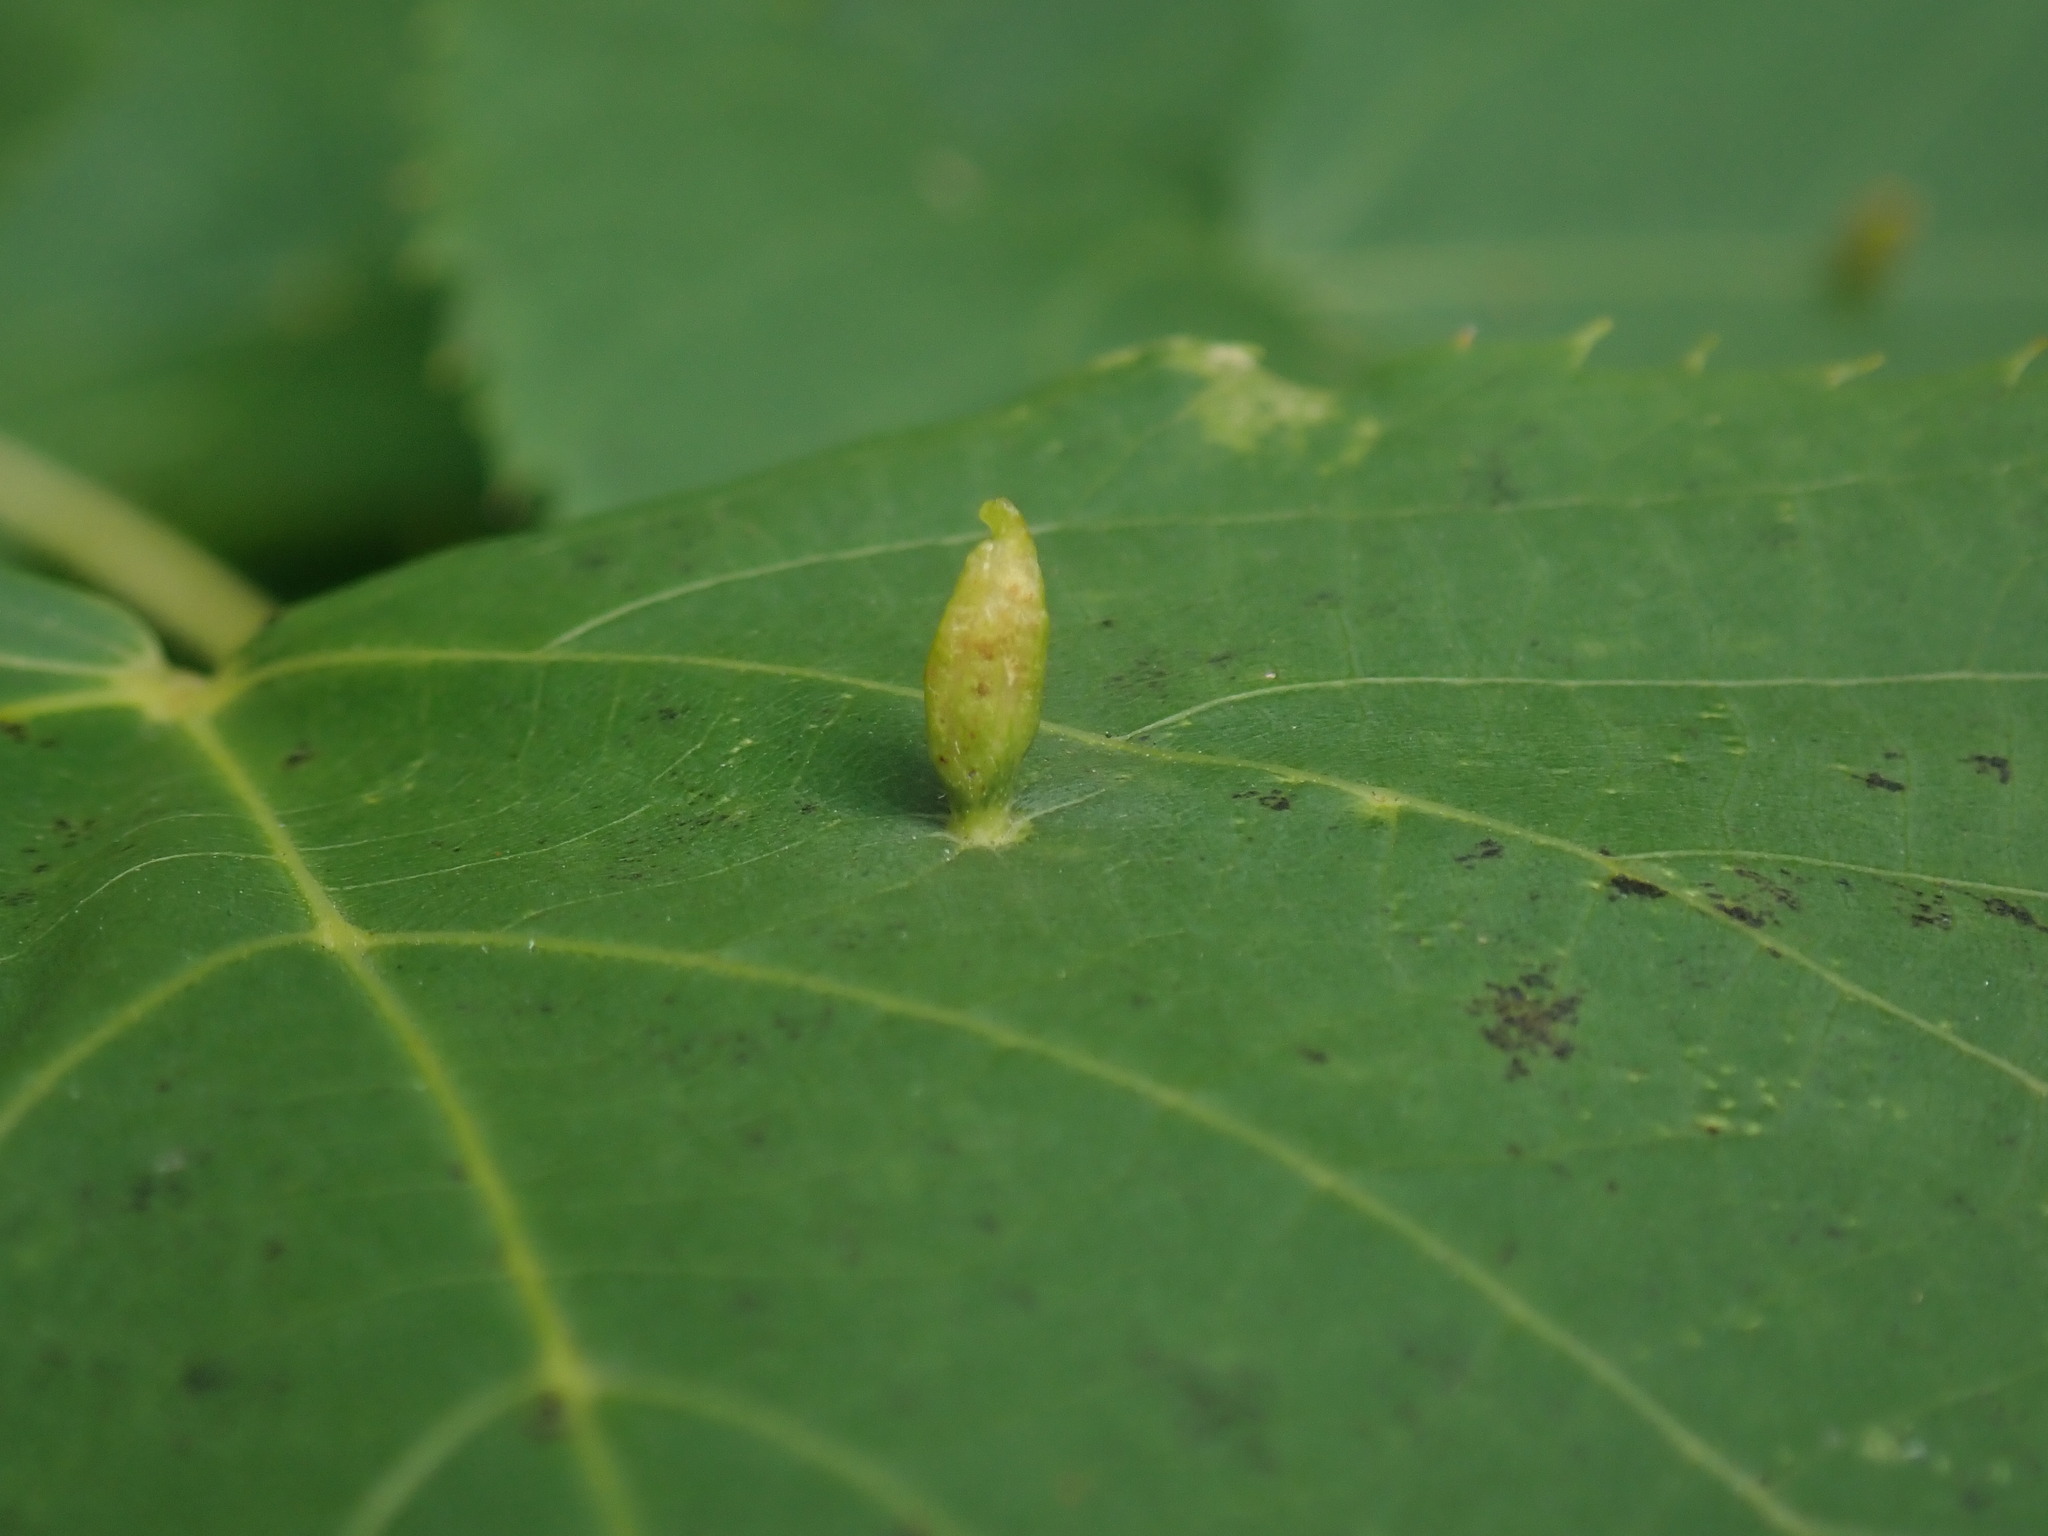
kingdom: Animalia
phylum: Arthropoda
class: Arachnida
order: Trombidiformes
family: Eriophyidae
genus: Eriophyes
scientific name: Eriophyes tiliae
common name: Red nail gall mite
